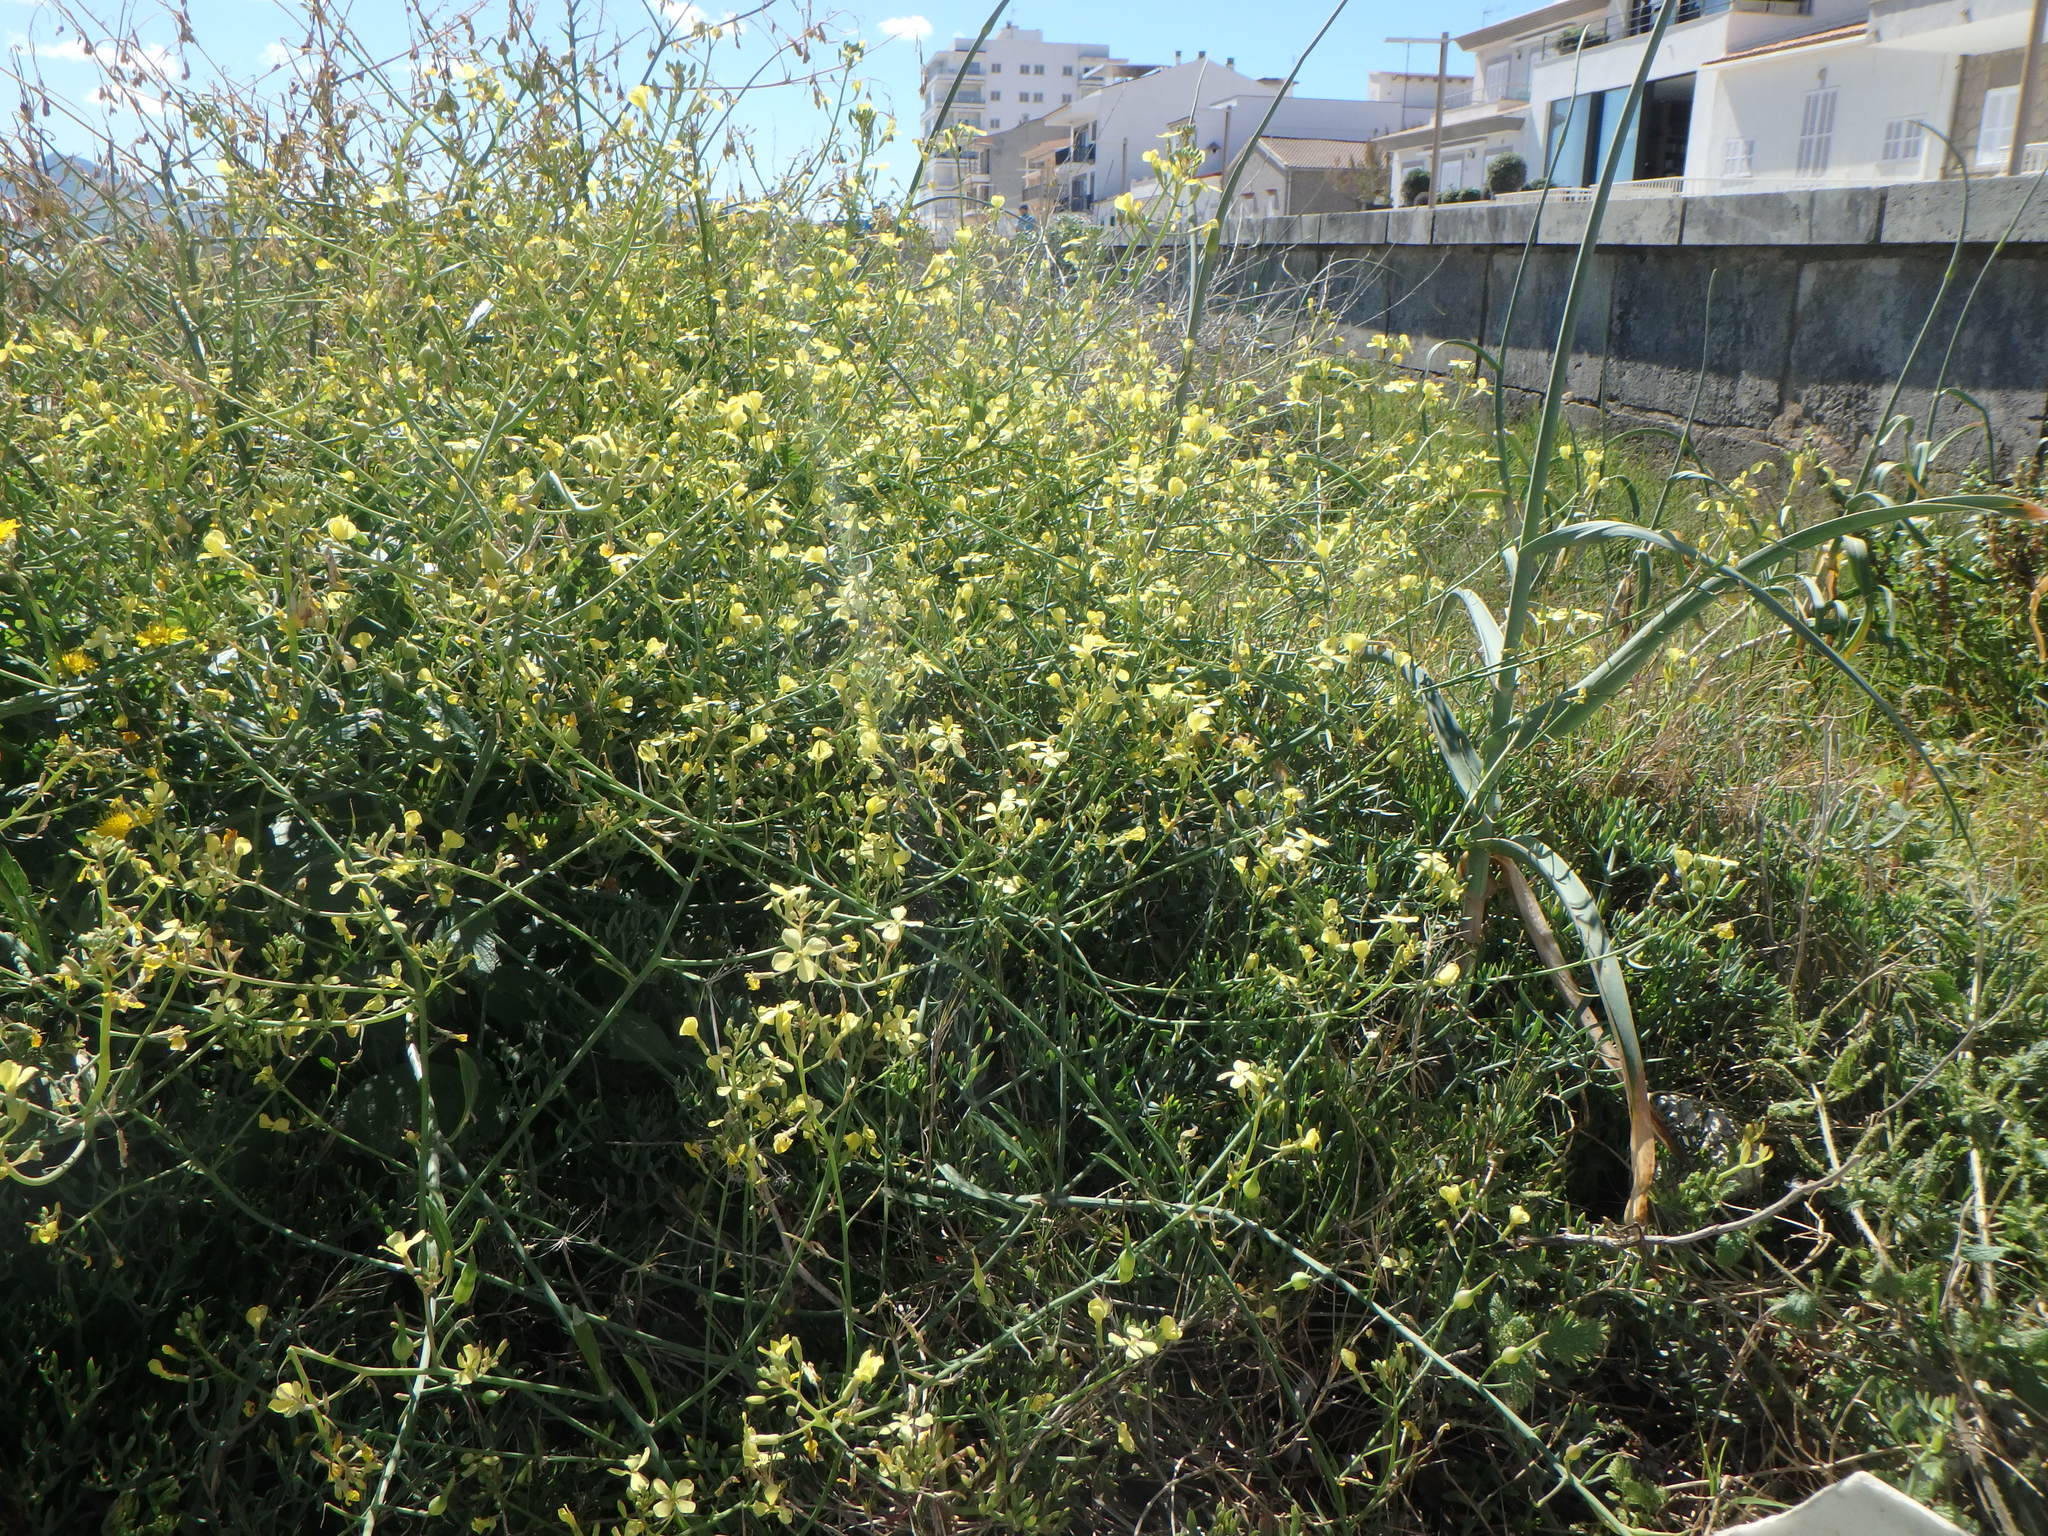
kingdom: Plantae
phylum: Tracheophyta
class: Magnoliopsida
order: Brassicales
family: Brassicaceae
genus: Raphanus
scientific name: Raphanus raphanistrum
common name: Wild radish
